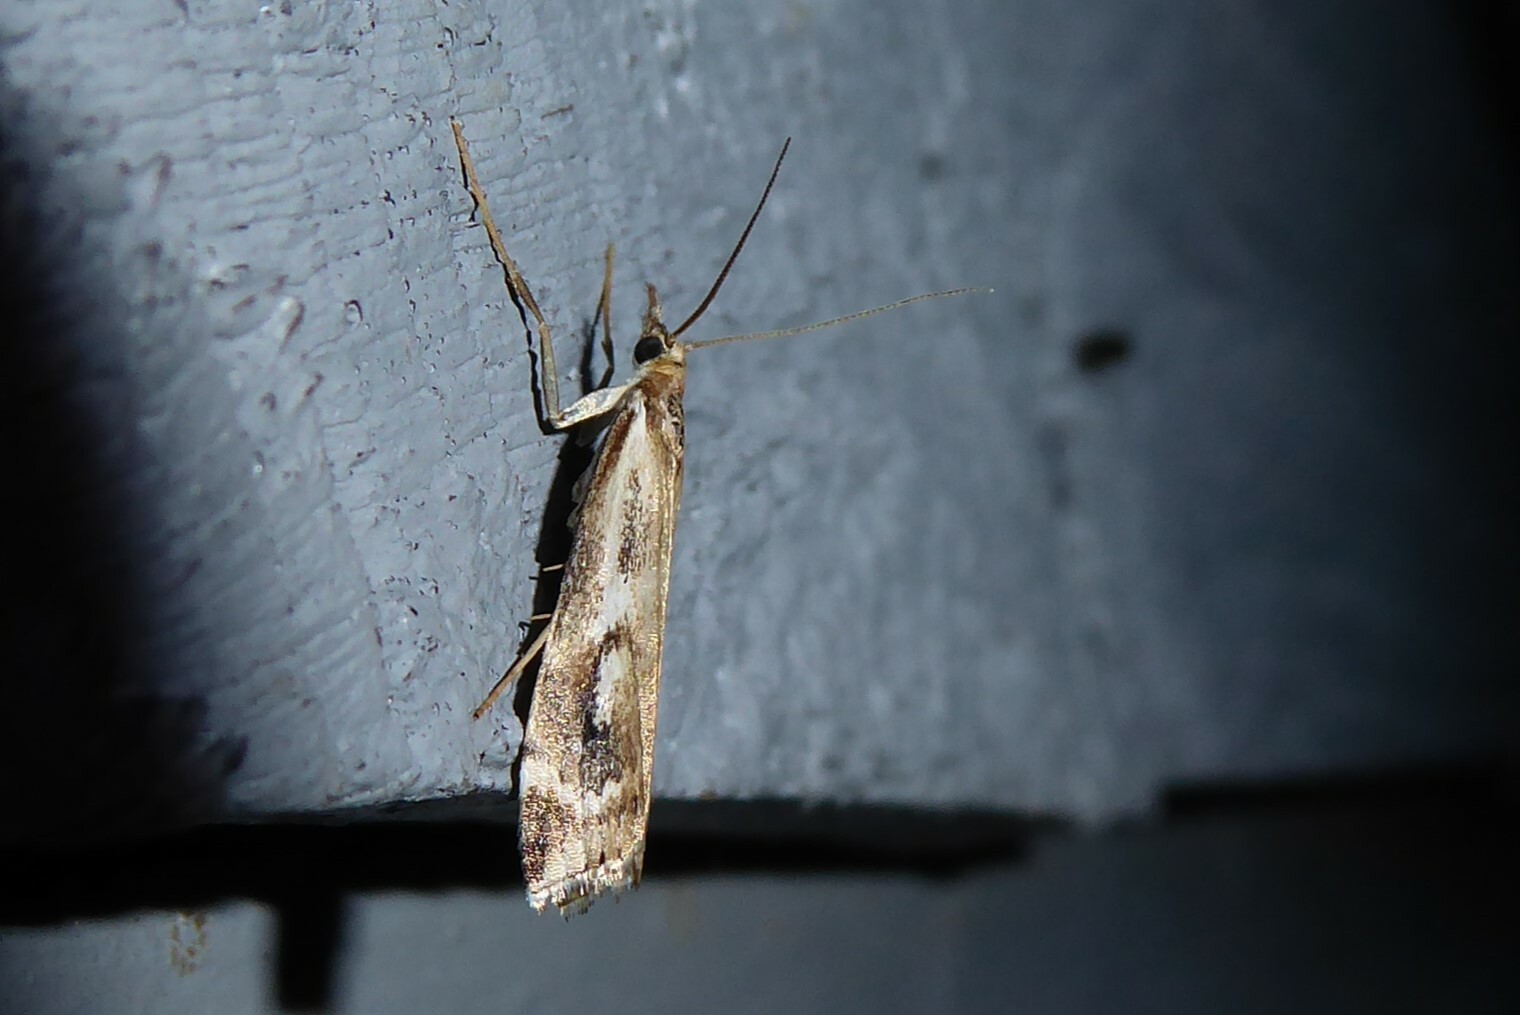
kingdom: Animalia
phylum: Arthropoda
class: Insecta
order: Lepidoptera
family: Crambidae
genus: Orocrambus
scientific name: Orocrambus vulgaris
